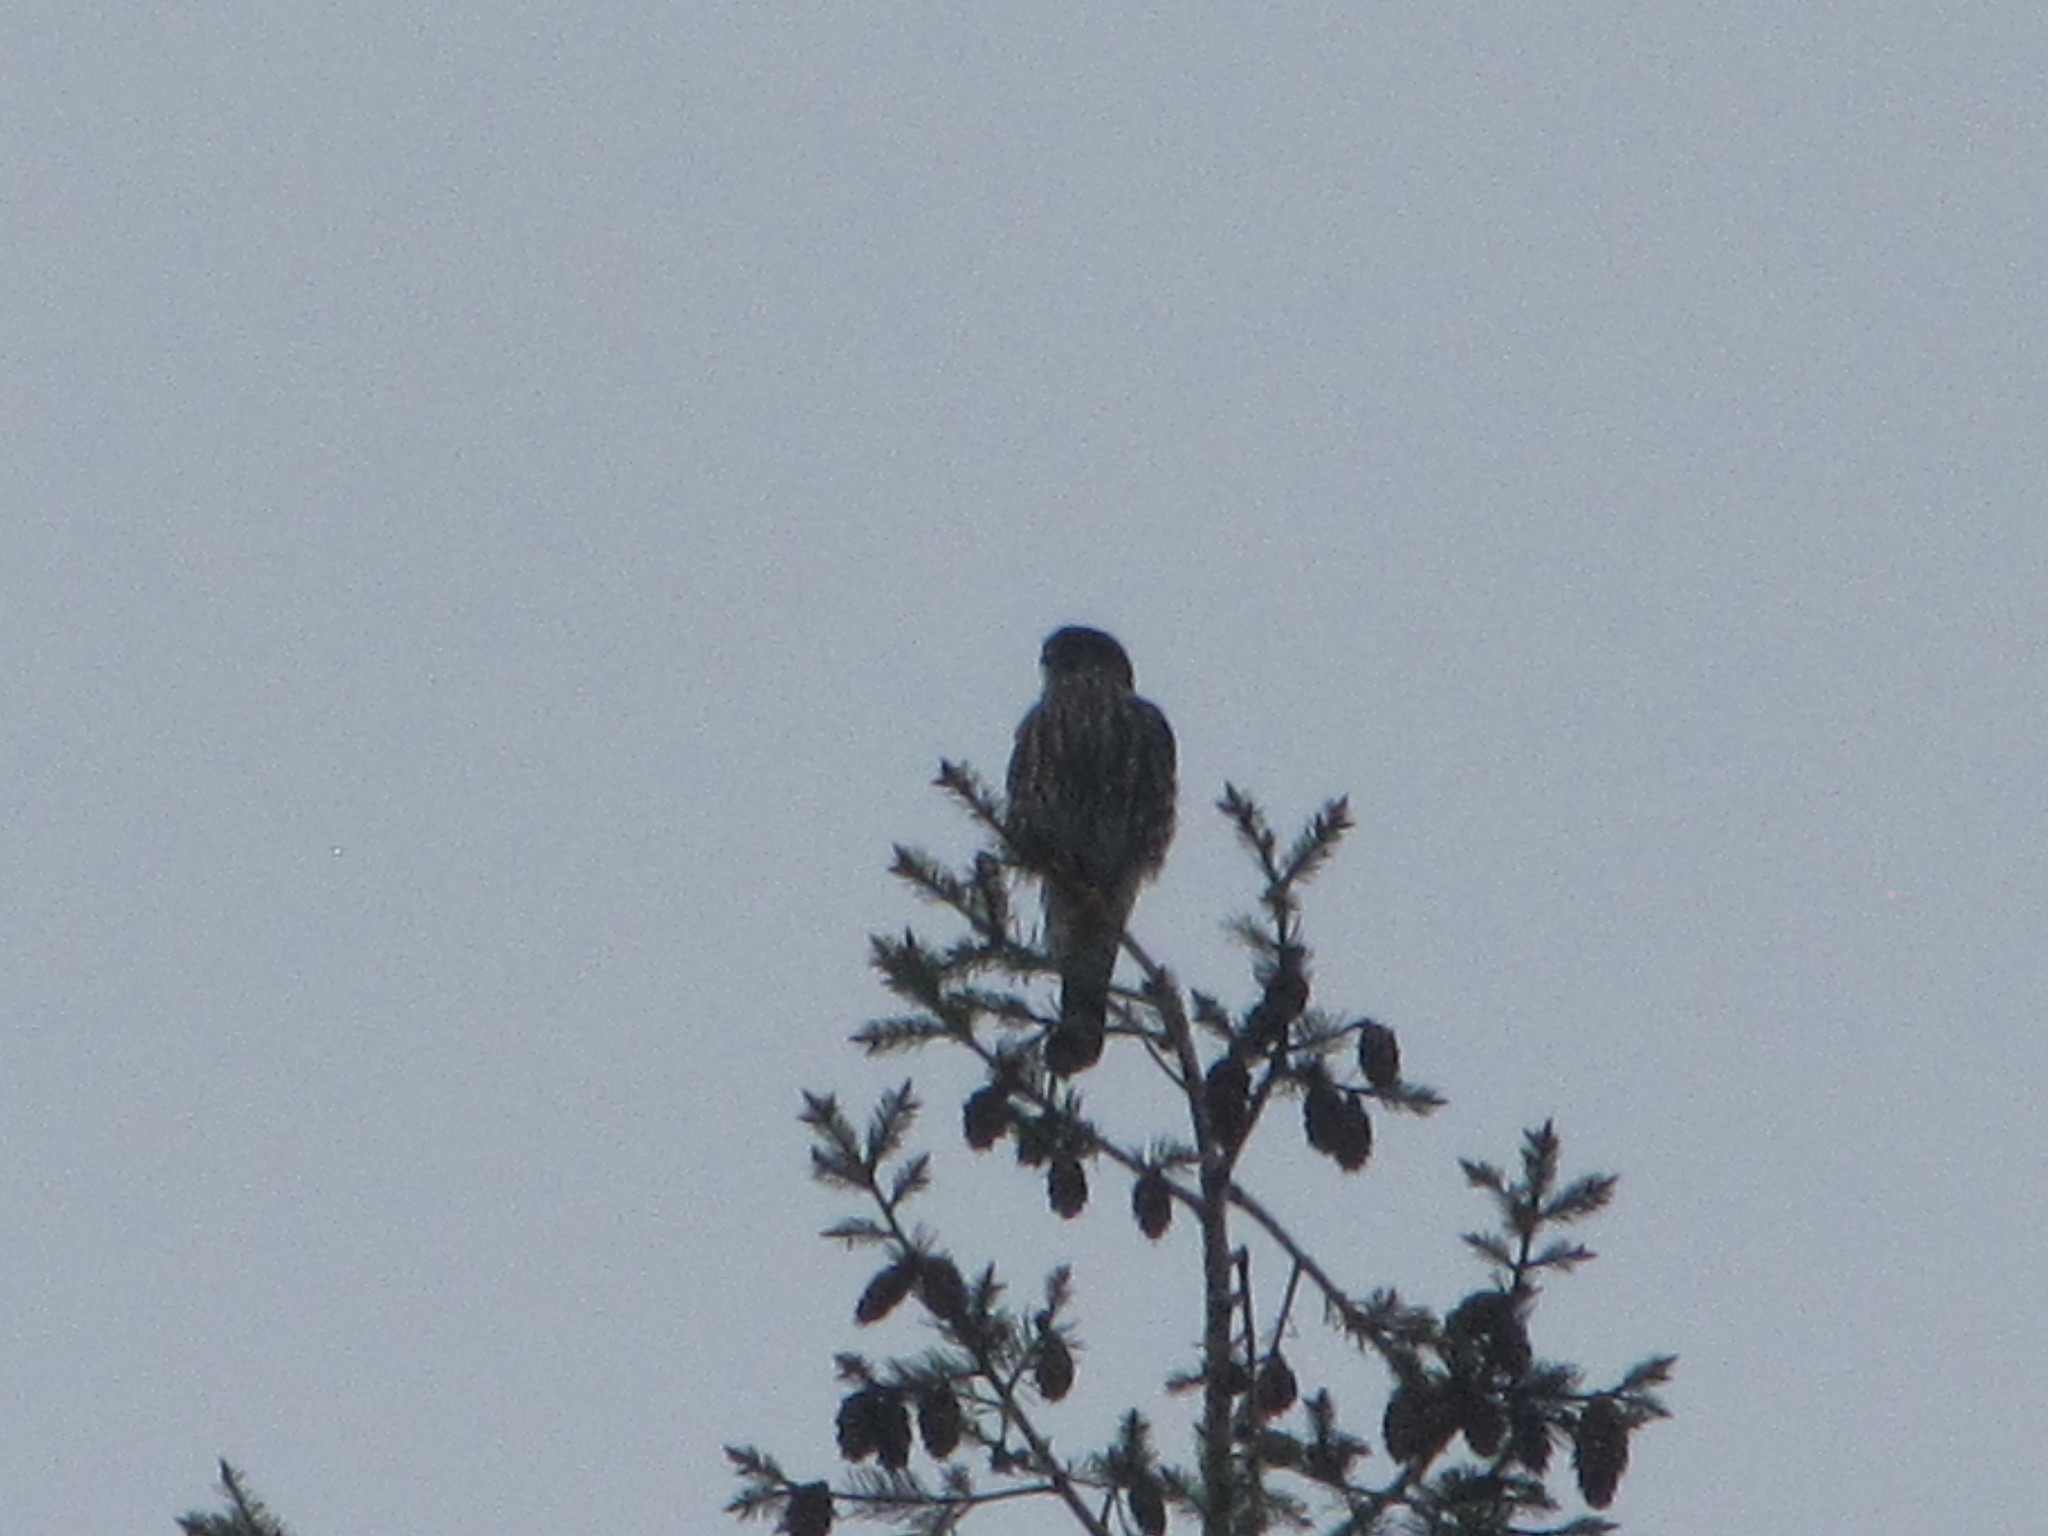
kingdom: Animalia
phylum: Chordata
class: Aves
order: Falconiformes
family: Falconidae
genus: Falco
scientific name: Falco columbarius
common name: Merlin
